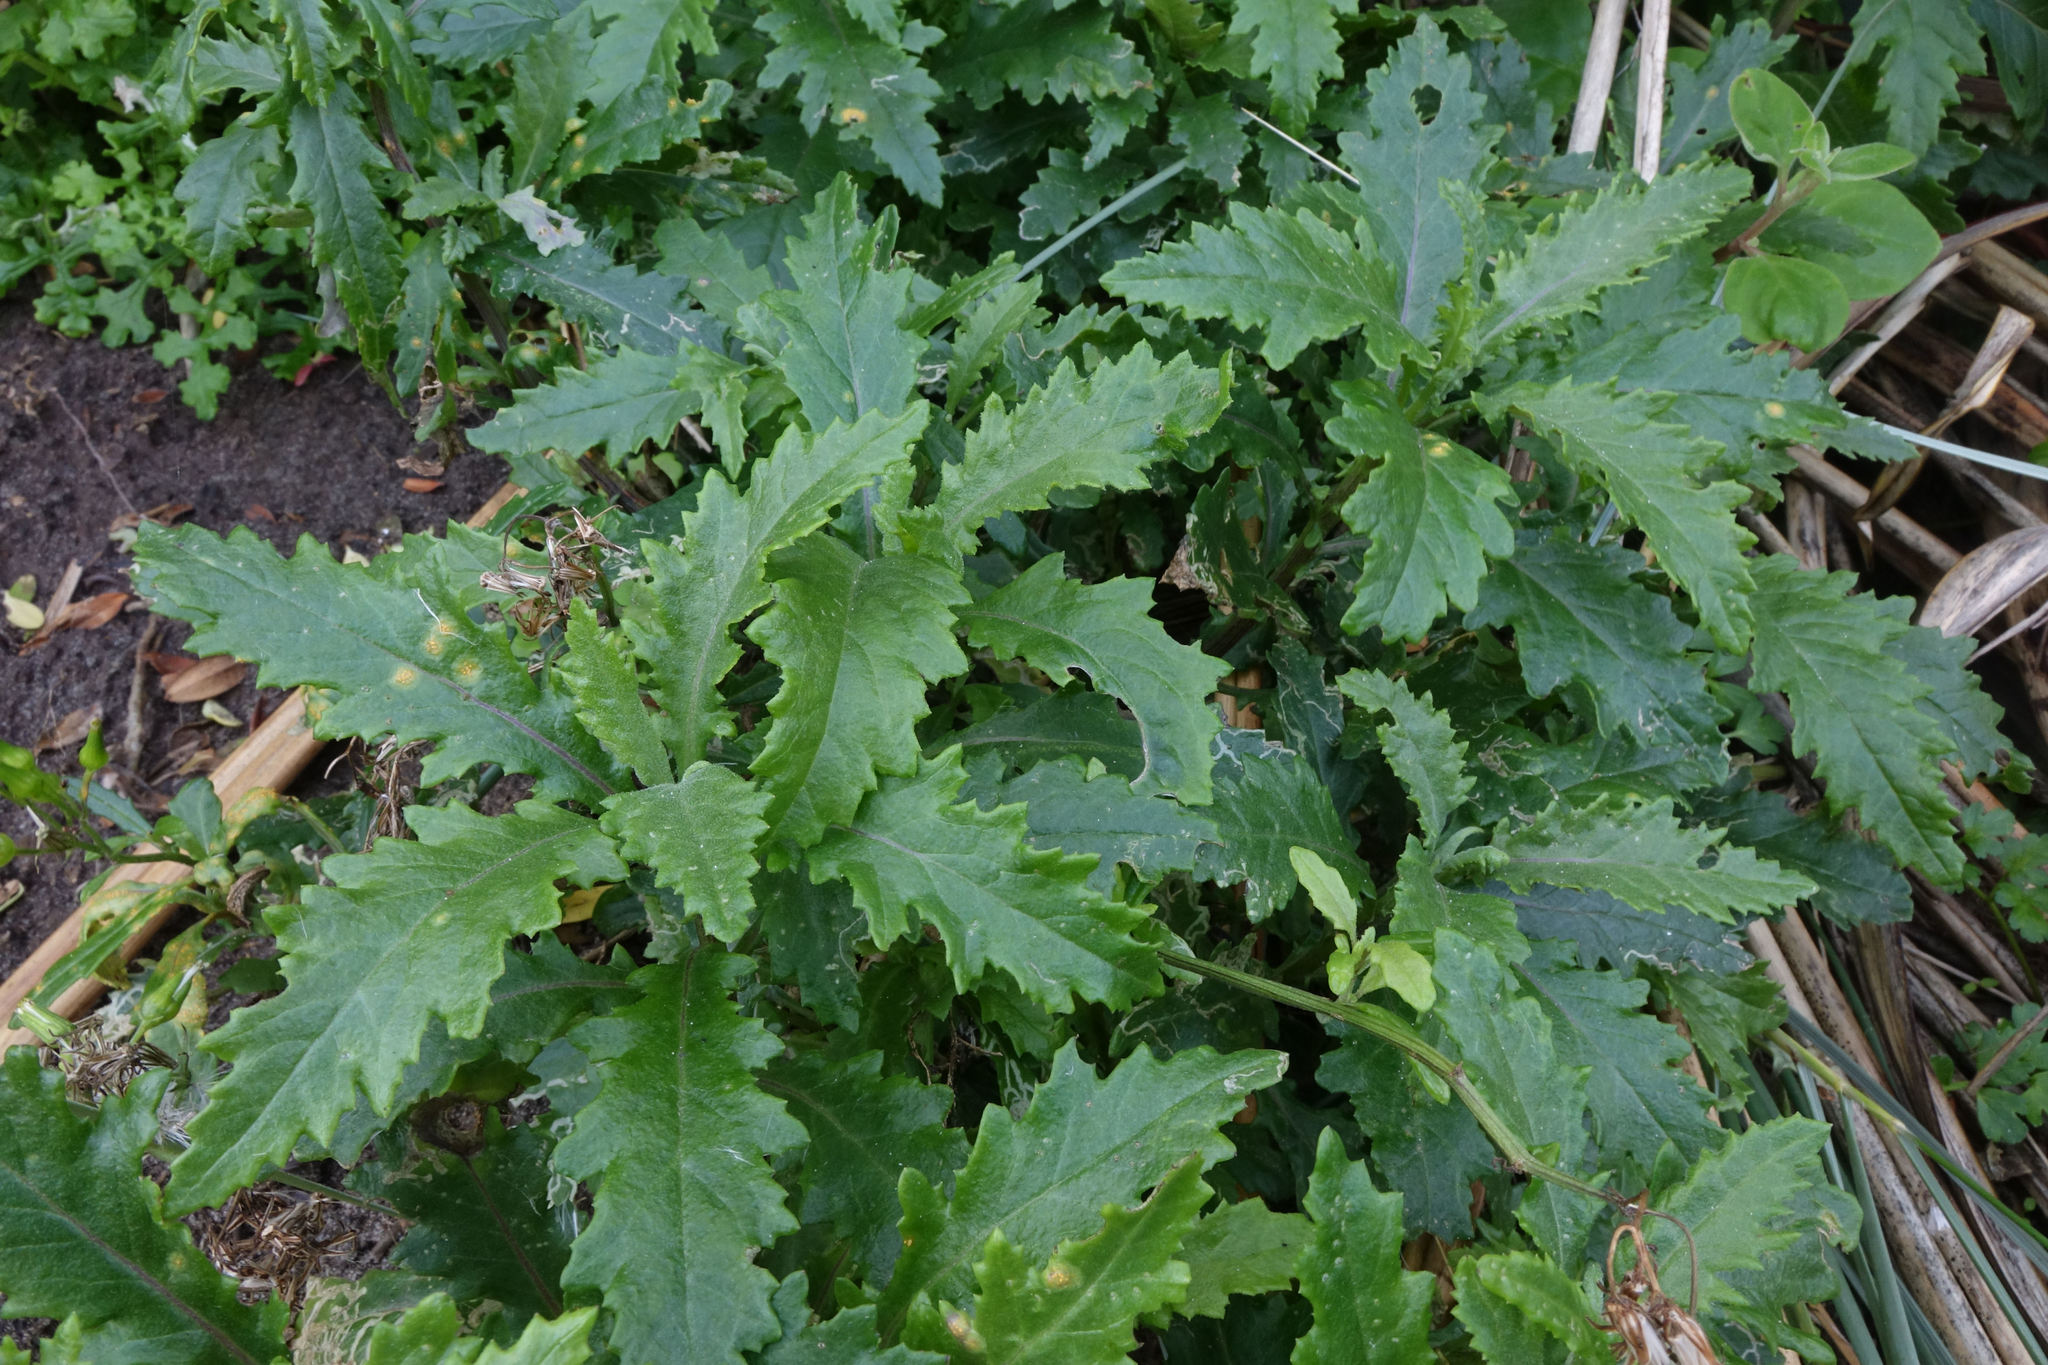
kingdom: Plantae
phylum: Tracheophyta
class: Magnoliopsida
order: Asterales
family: Asteraceae
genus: Senecio
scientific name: Senecio biserratus
